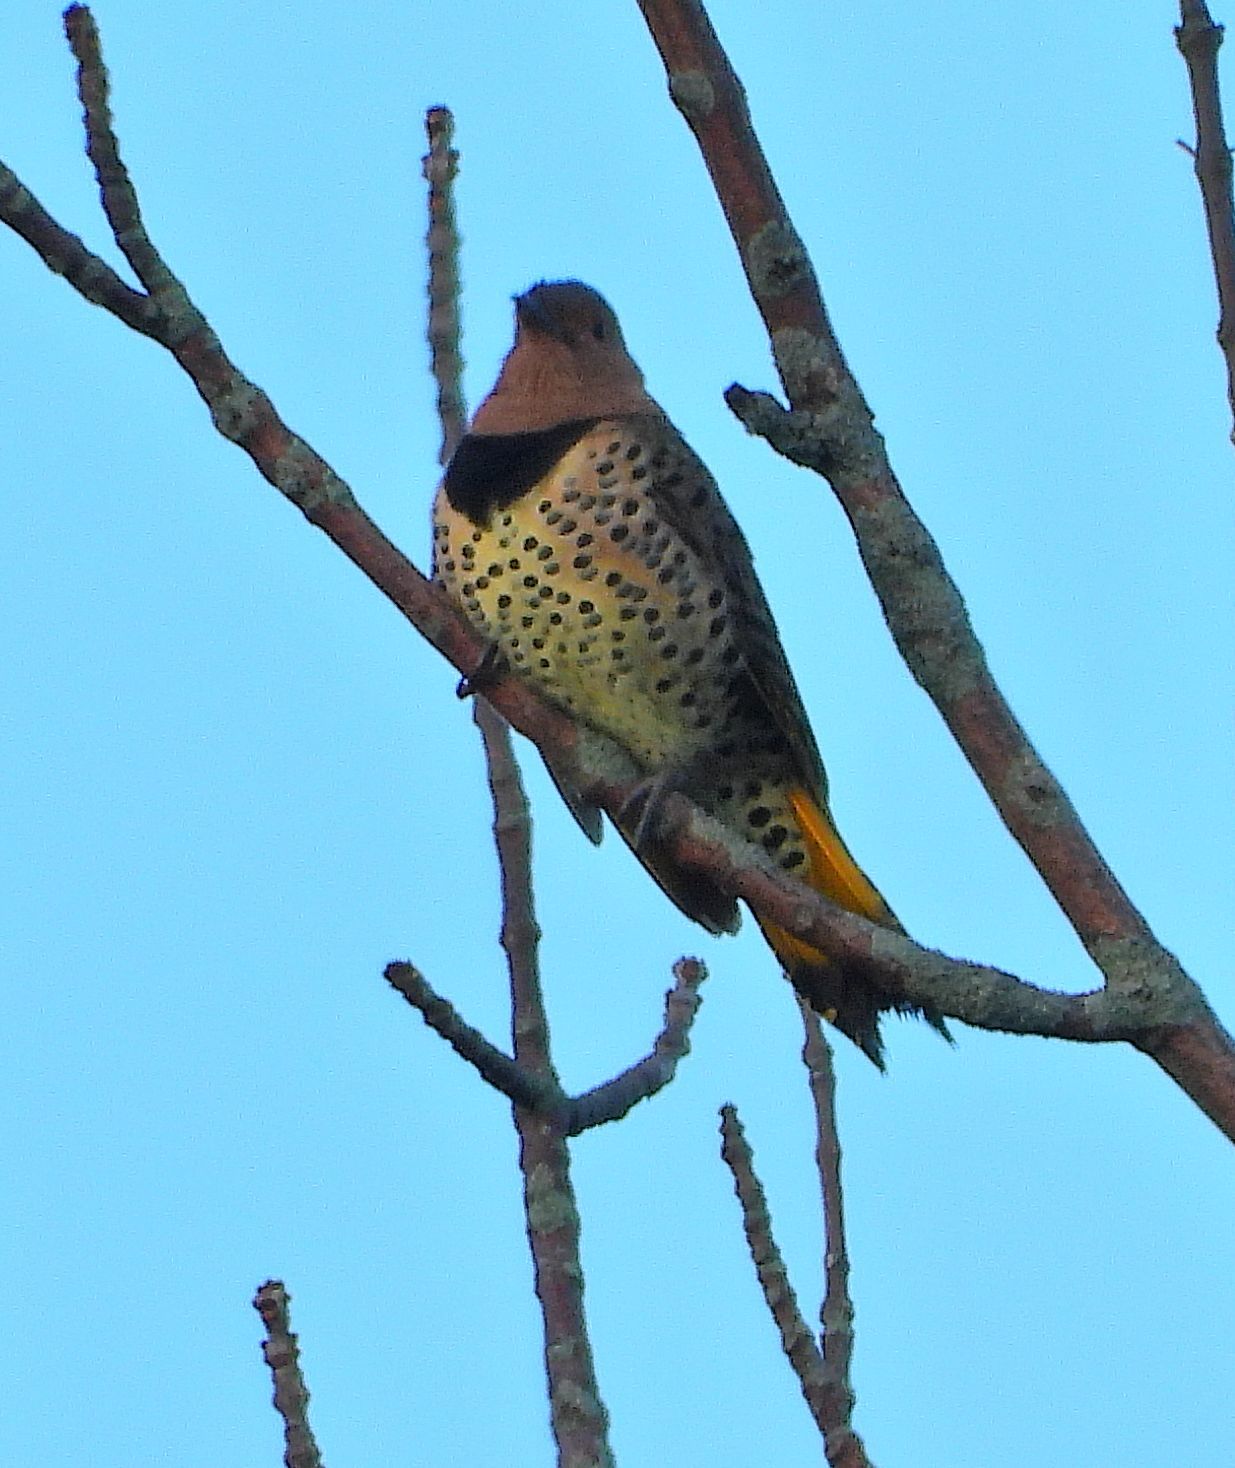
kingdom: Animalia
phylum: Chordata
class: Aves
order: Piciformes
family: Picidae
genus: Colaptes
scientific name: Colaptes auratus
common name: Northern flicker
